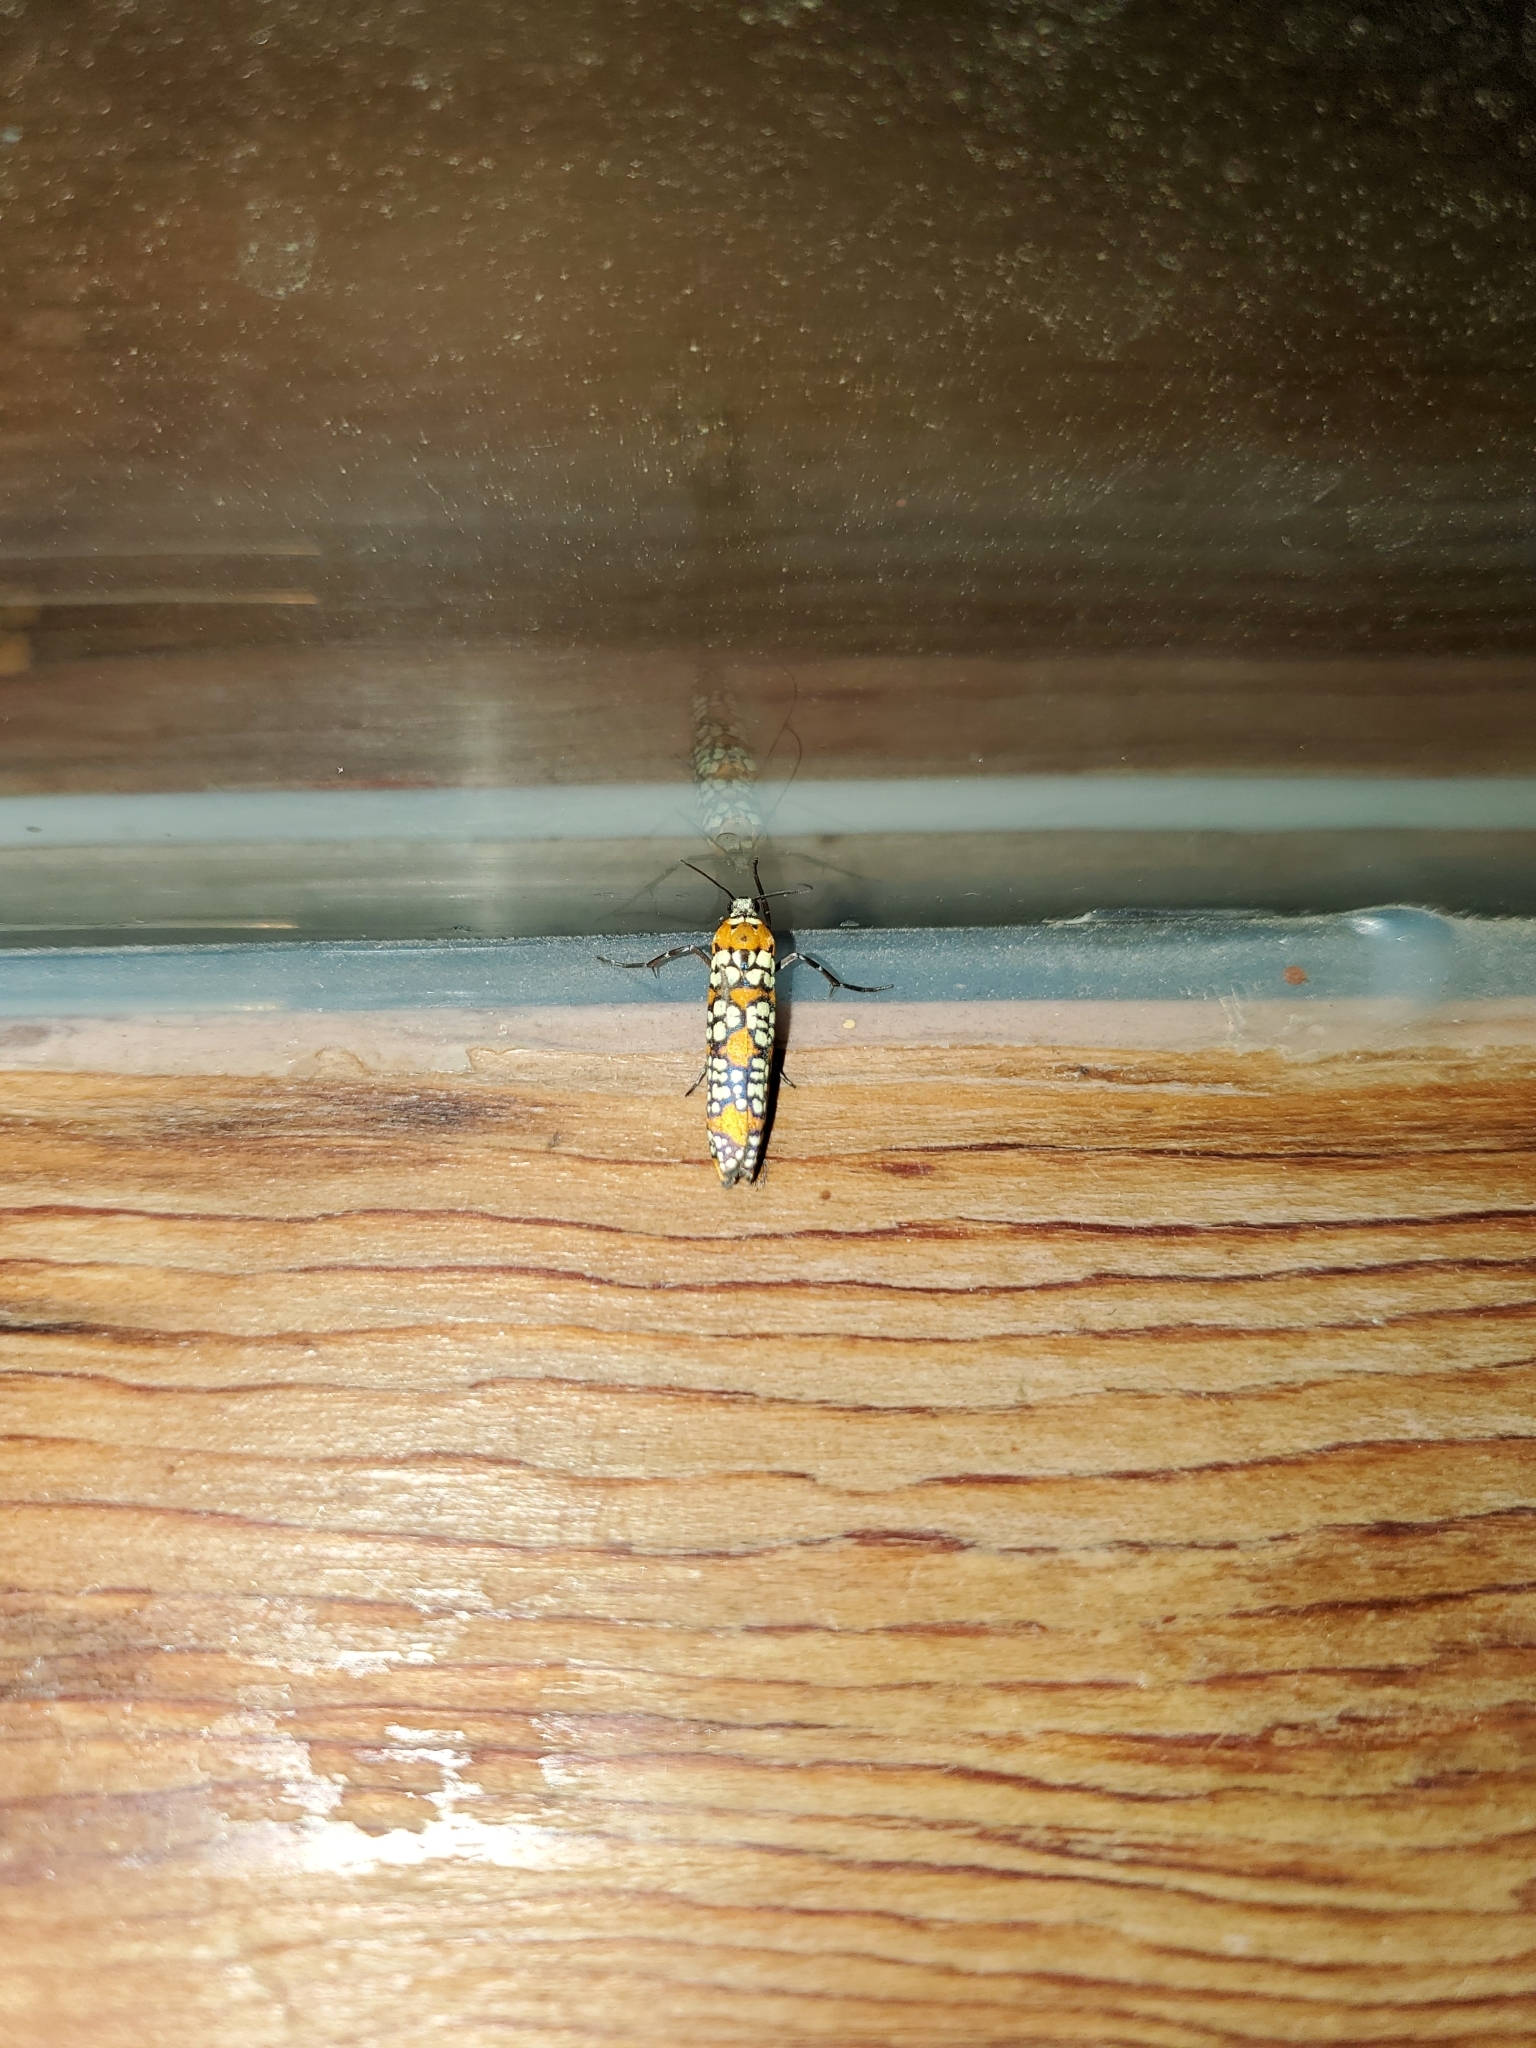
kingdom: Animalia
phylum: Arthropoda
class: Insecta
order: Lepidoptera
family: Attevidae
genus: Atteva
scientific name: Atteva punctella
